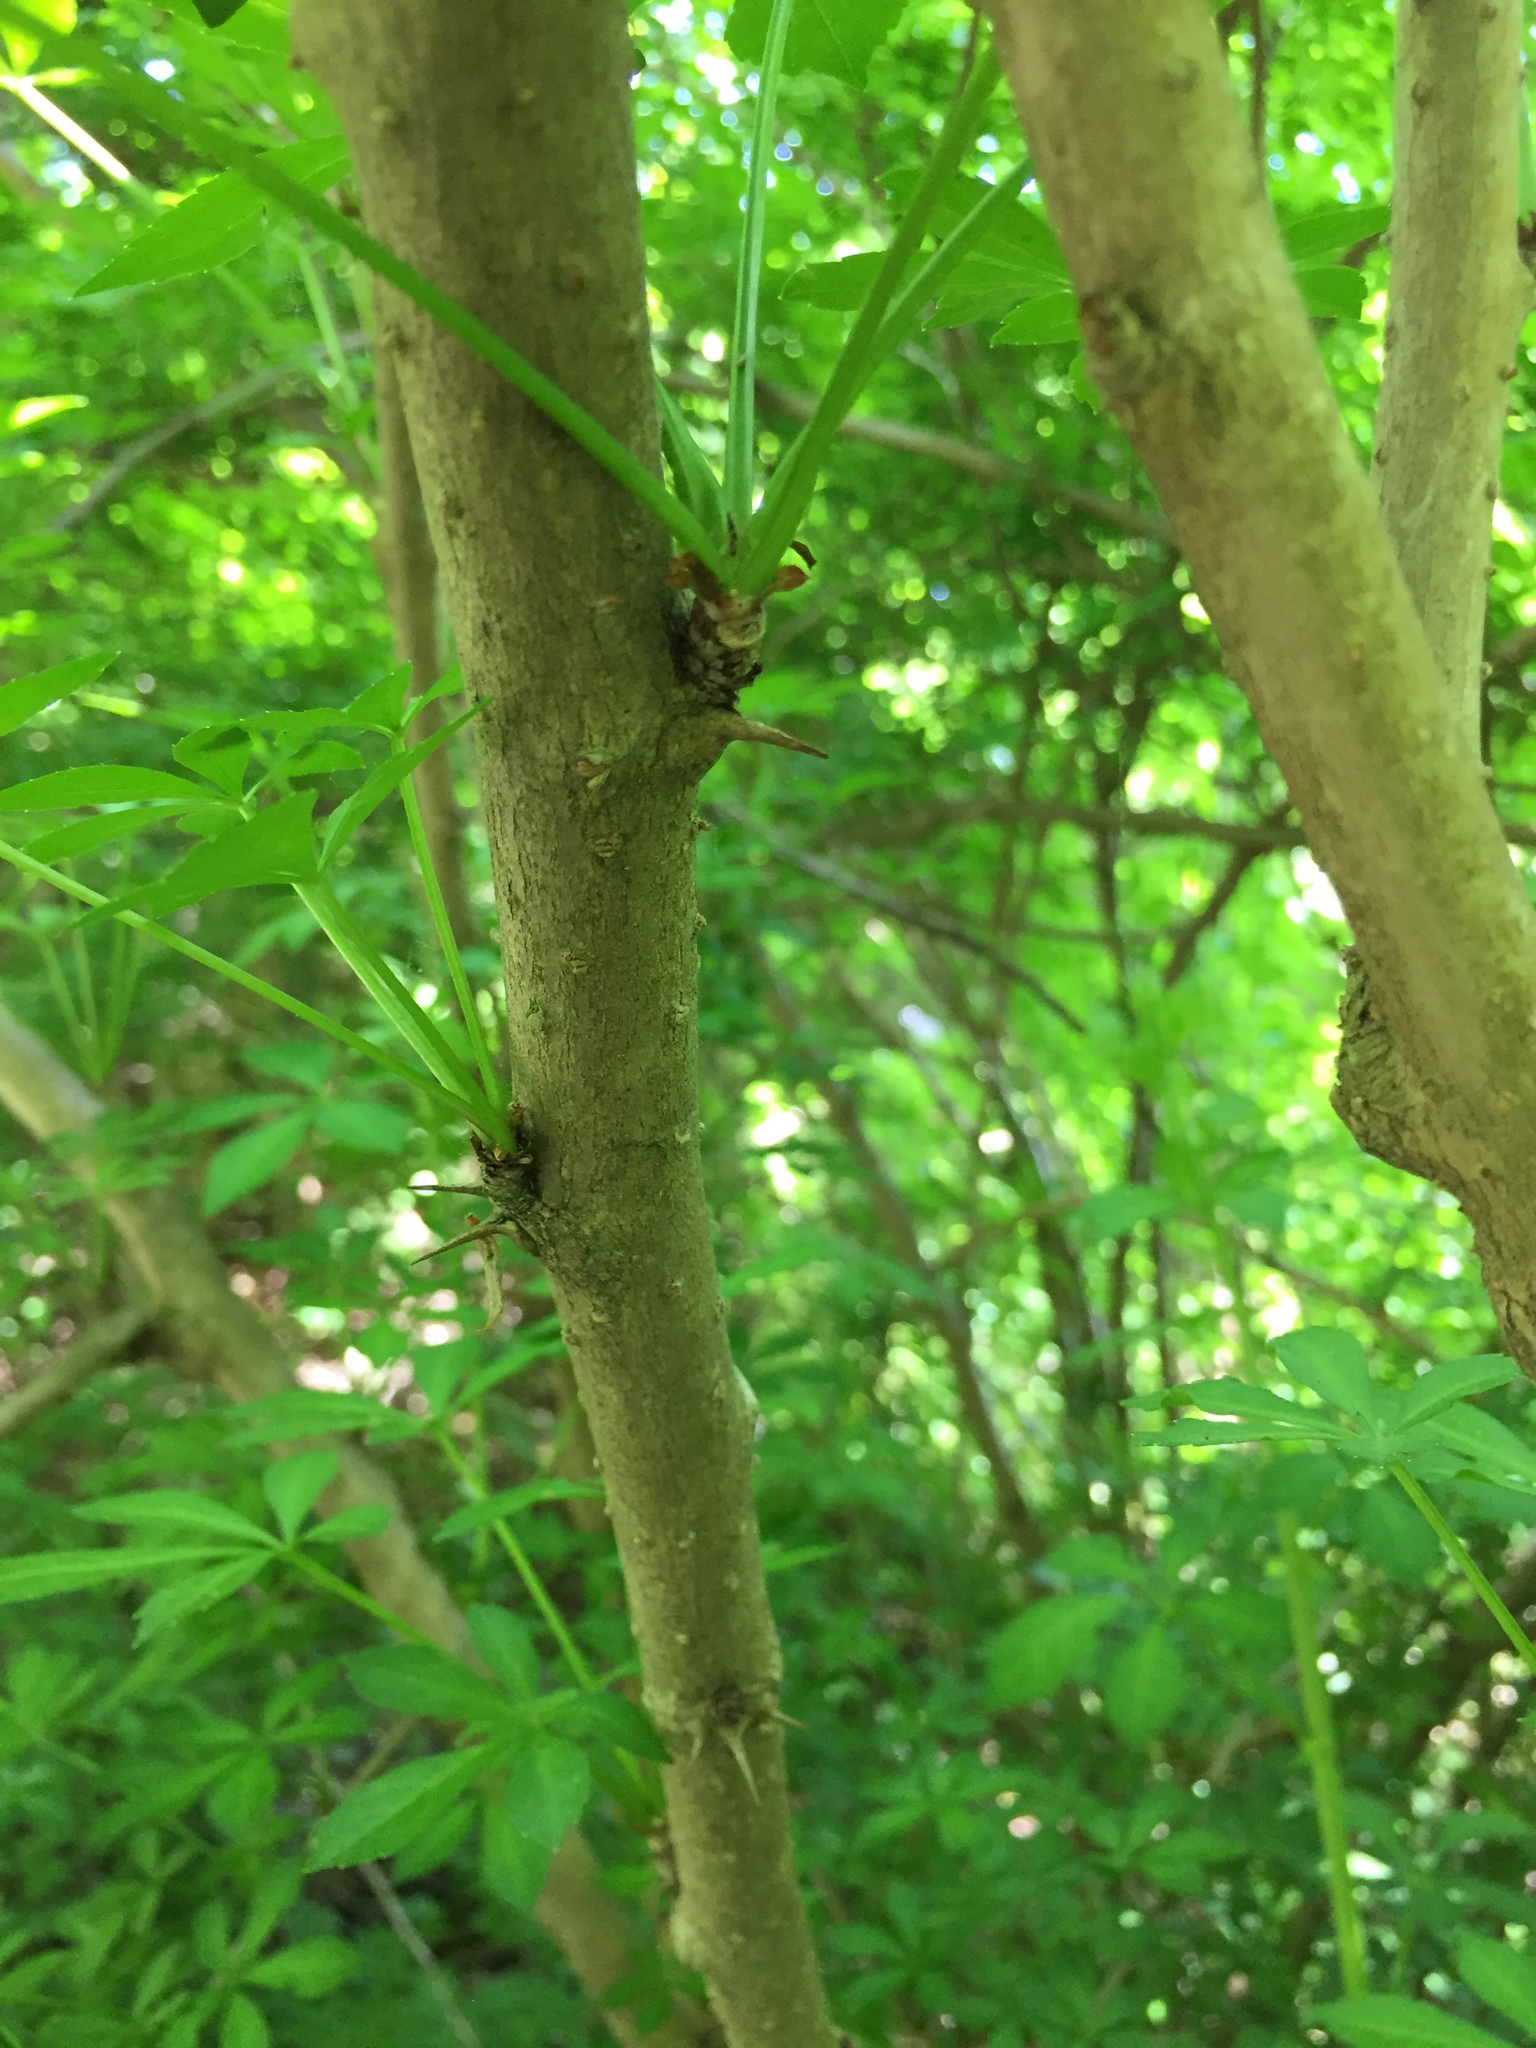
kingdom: Plantae
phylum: Tracheophyta
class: Magnoliopsida
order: Apiales
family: Araliaceae
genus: Eleutherococcus
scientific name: Eleutherococcus sieboldianus
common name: Ginseng
